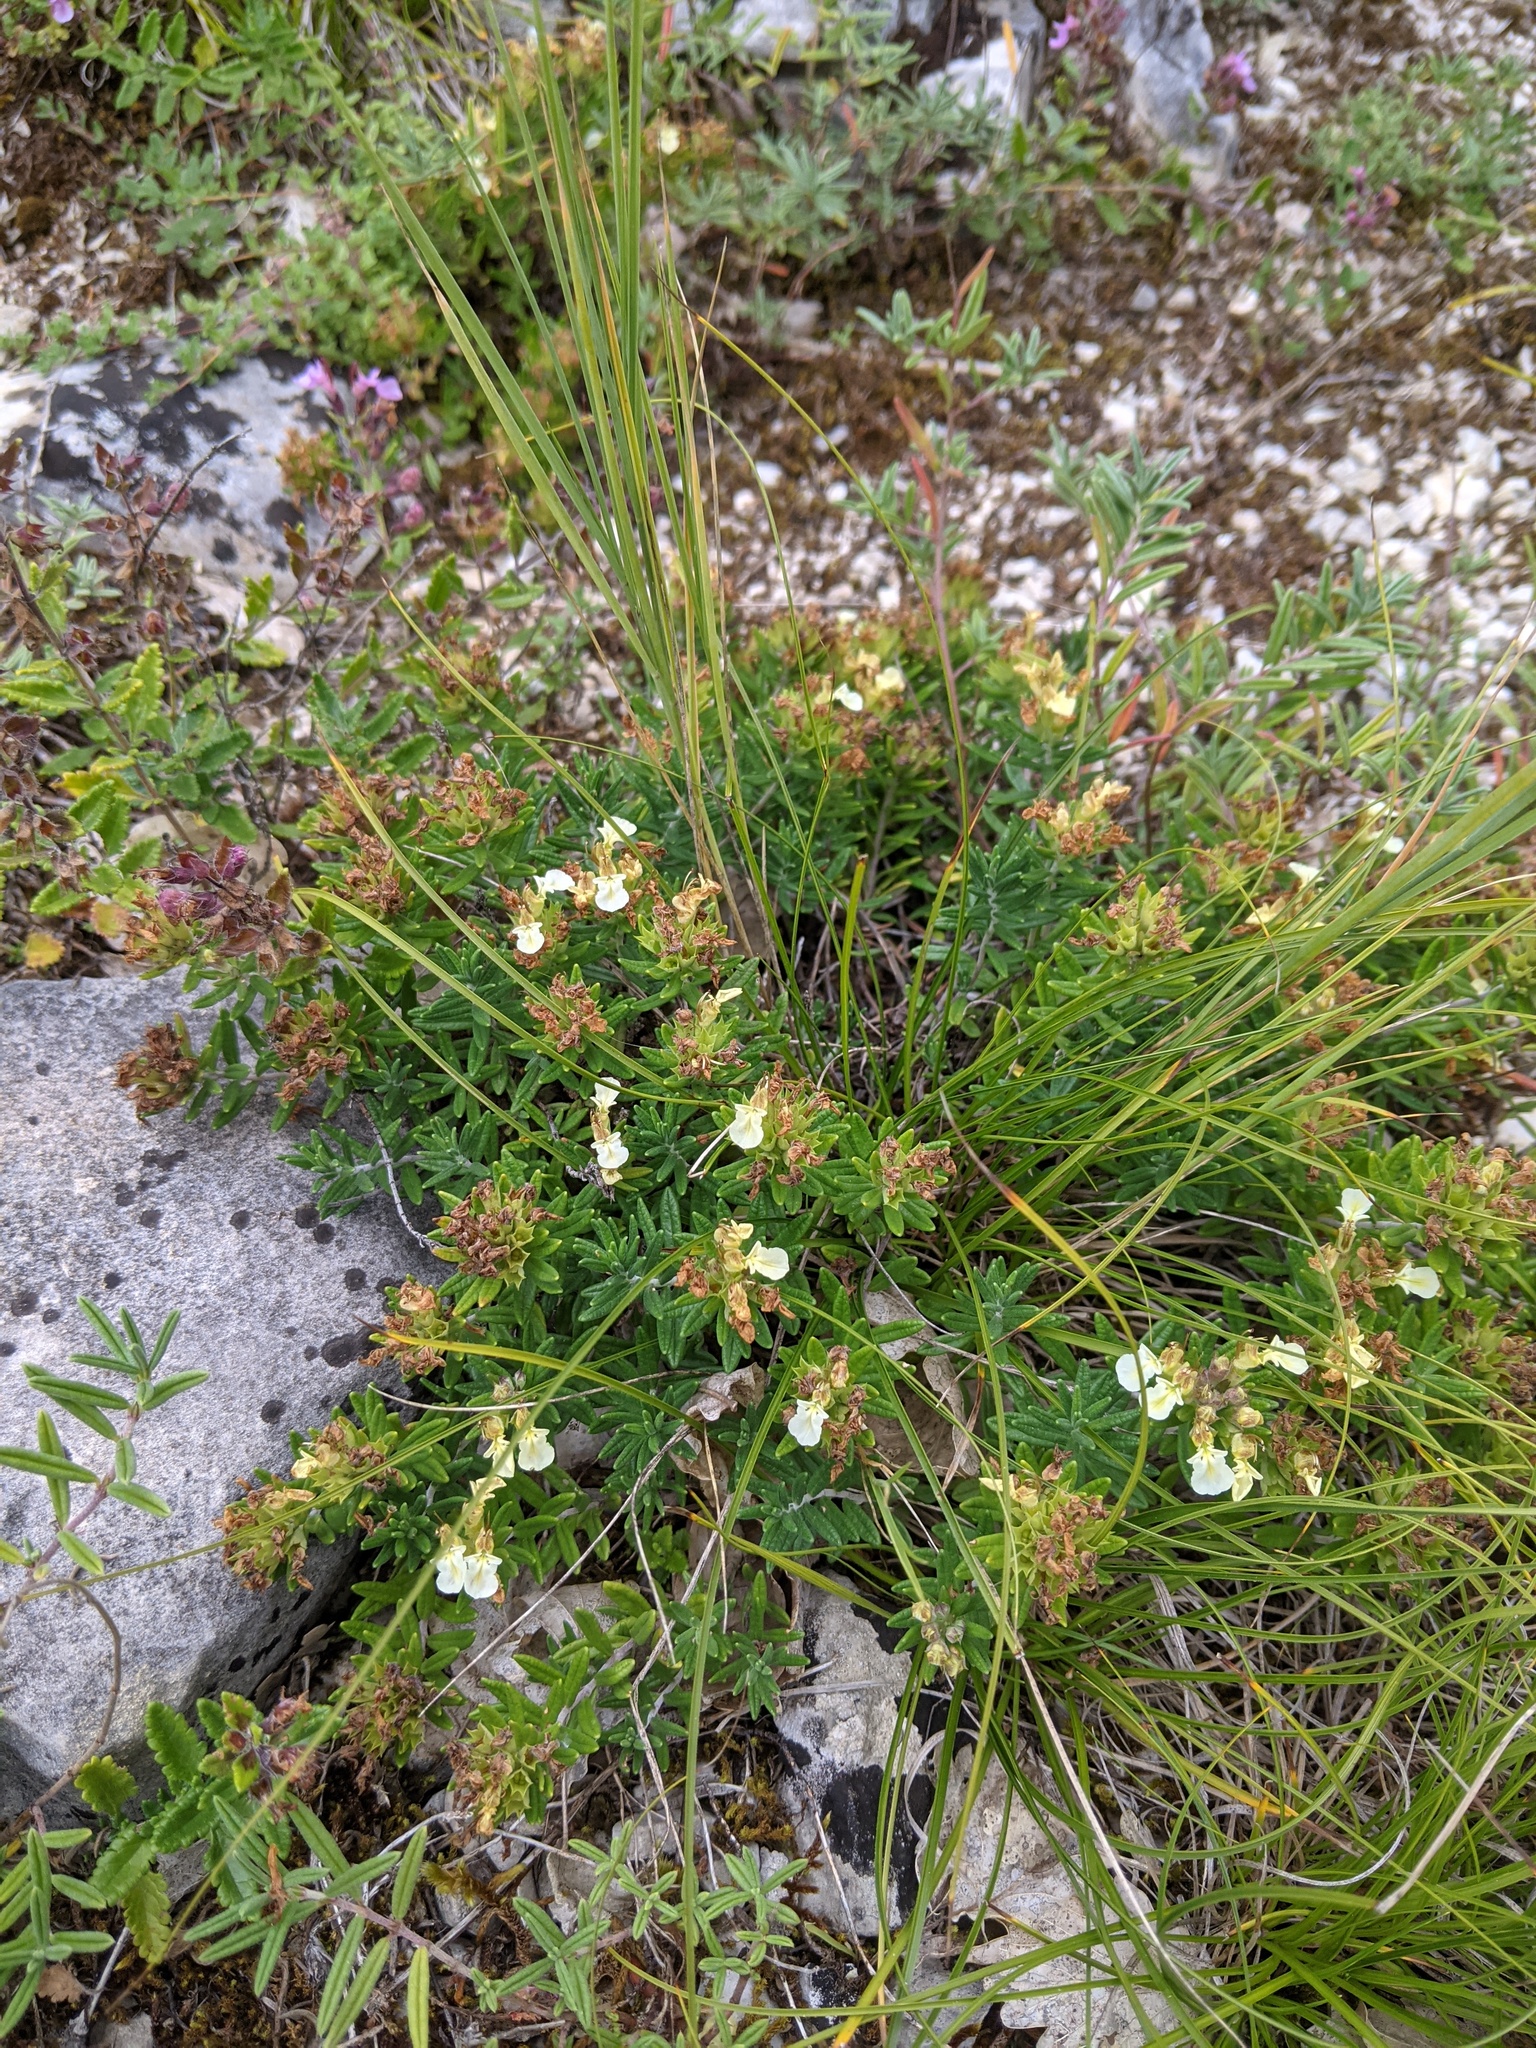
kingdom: Plantae
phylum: Tracheophyta
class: Magnoliopsida
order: Lamiales
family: Lamiaceae
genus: Teucrium
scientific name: Teucrium montanum
